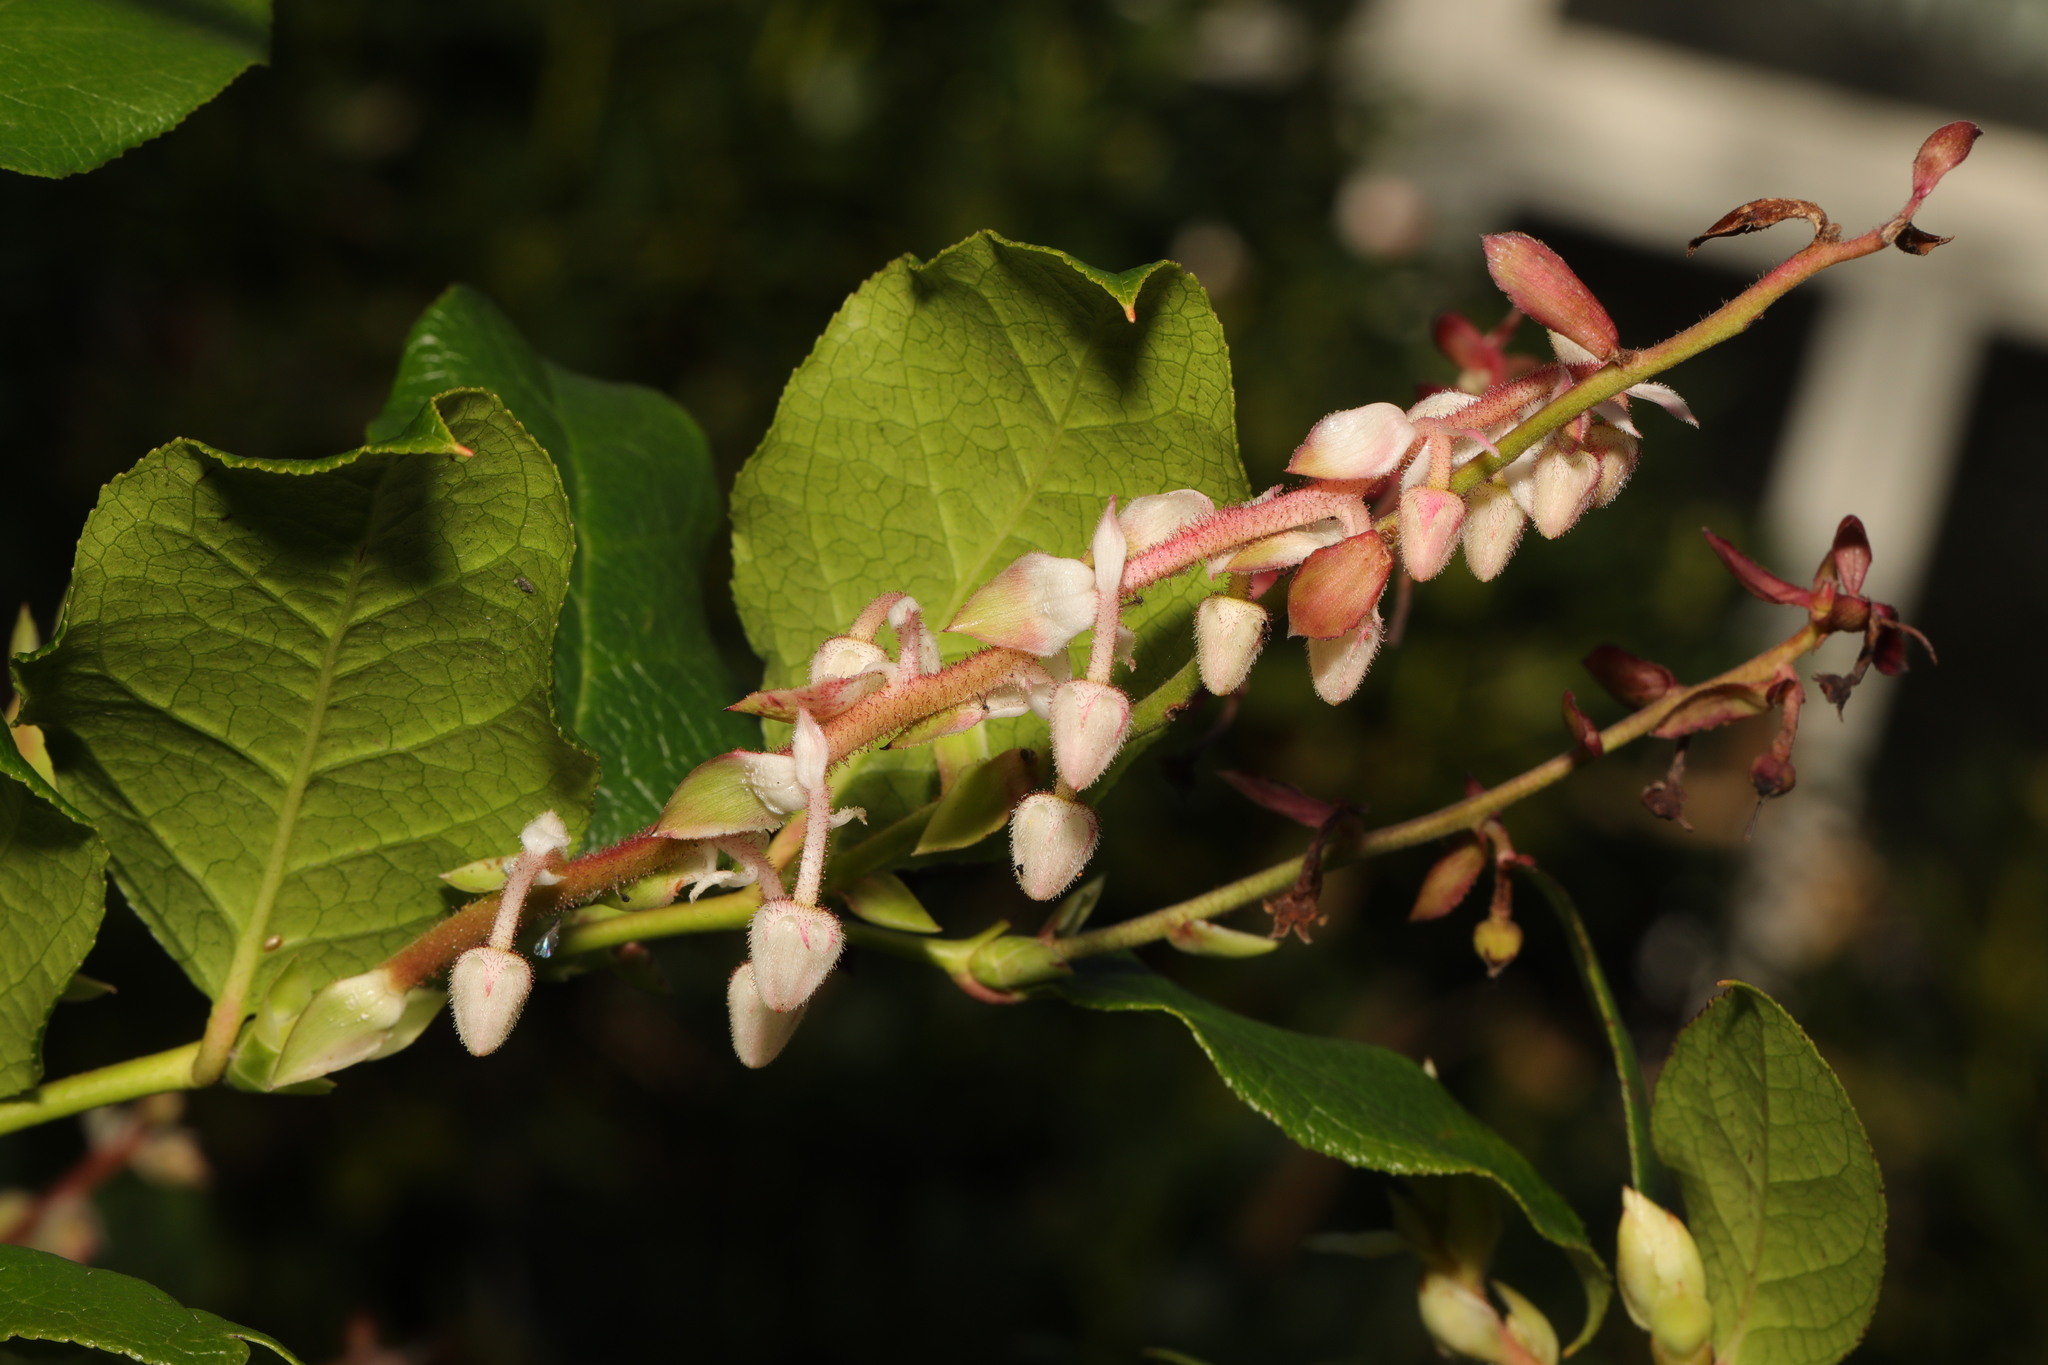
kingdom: Plantae
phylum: Tracheophyta
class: Magnoliopsida
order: Ericales
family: Ericaceae
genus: Gaultheria
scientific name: Gaultheria shallon
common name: Shallon
